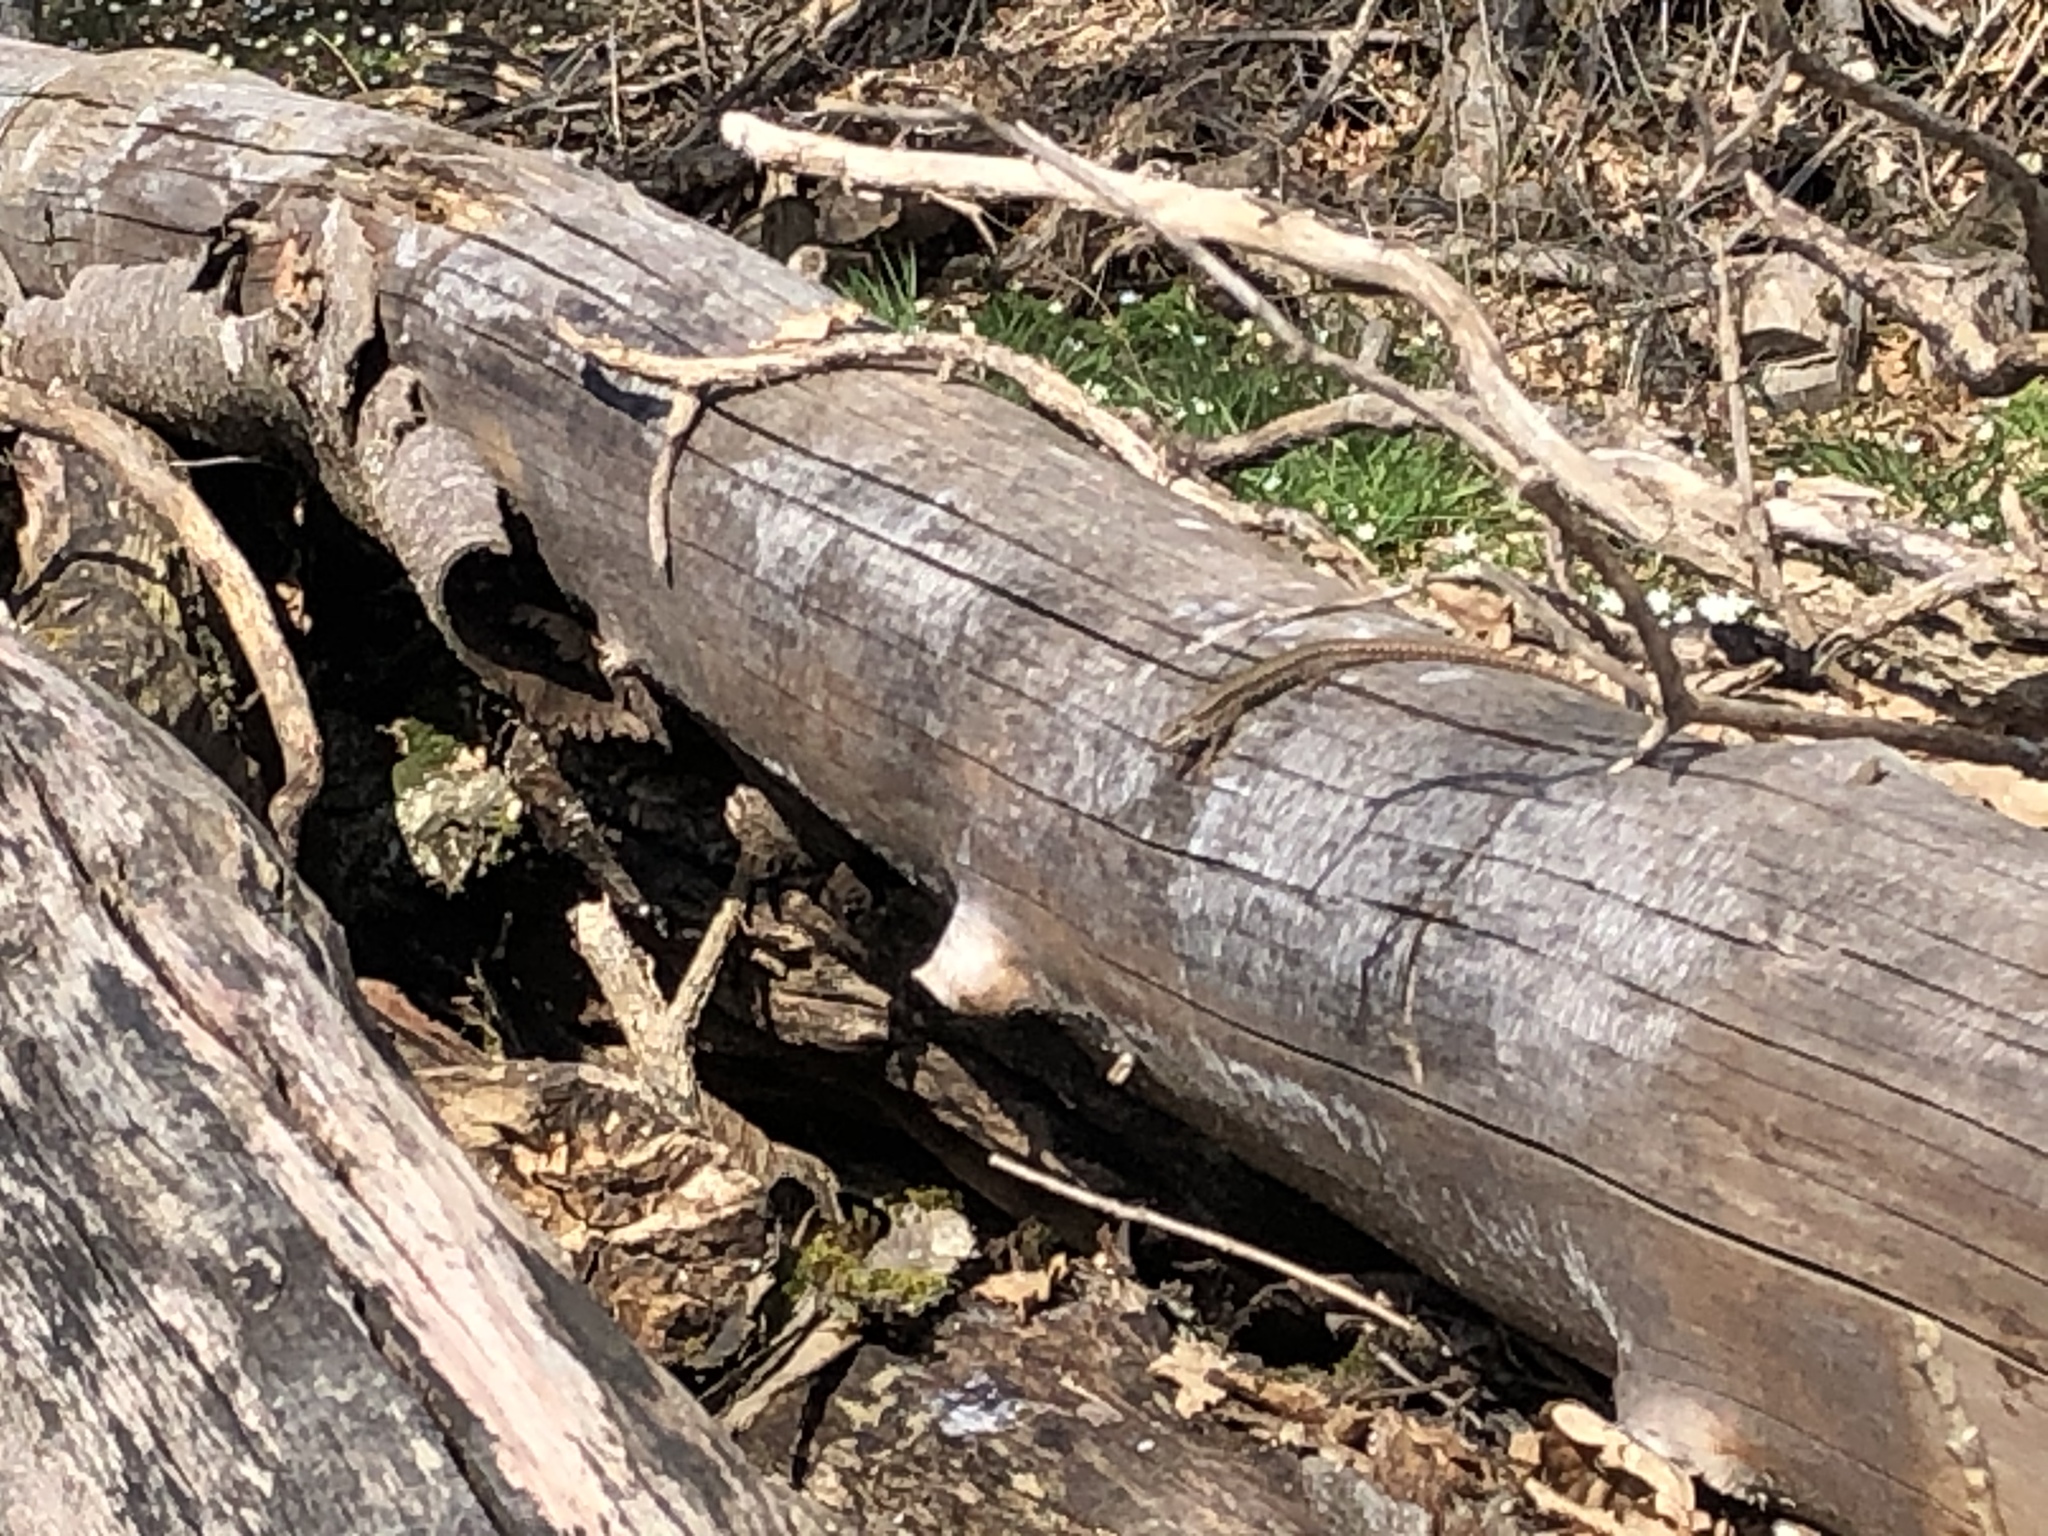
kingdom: Animalia
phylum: Chordata
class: Squamata
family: Lacertidae
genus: Podarcis
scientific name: Podarcis muralis
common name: Common wall lizard
